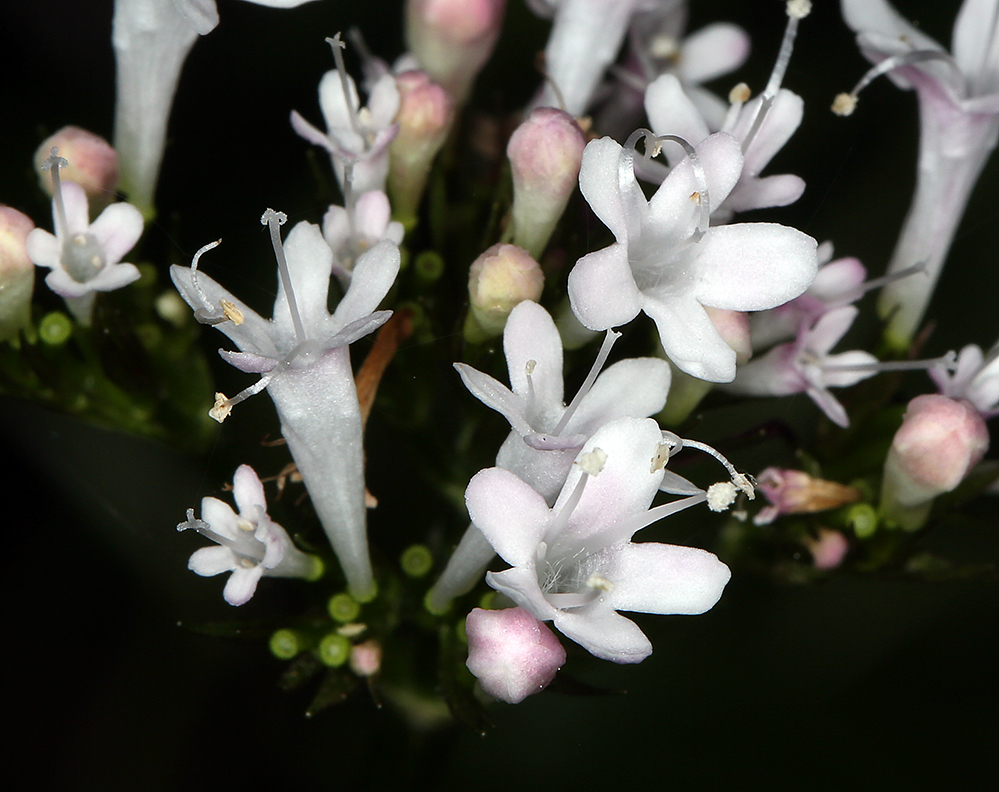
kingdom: Plantae
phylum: Tracheophyta
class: Magnoliopsida
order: Dipsacales
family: Caprifoliaceae
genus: Valeriana
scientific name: Valeriana scouleri
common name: Scouler's valerian
